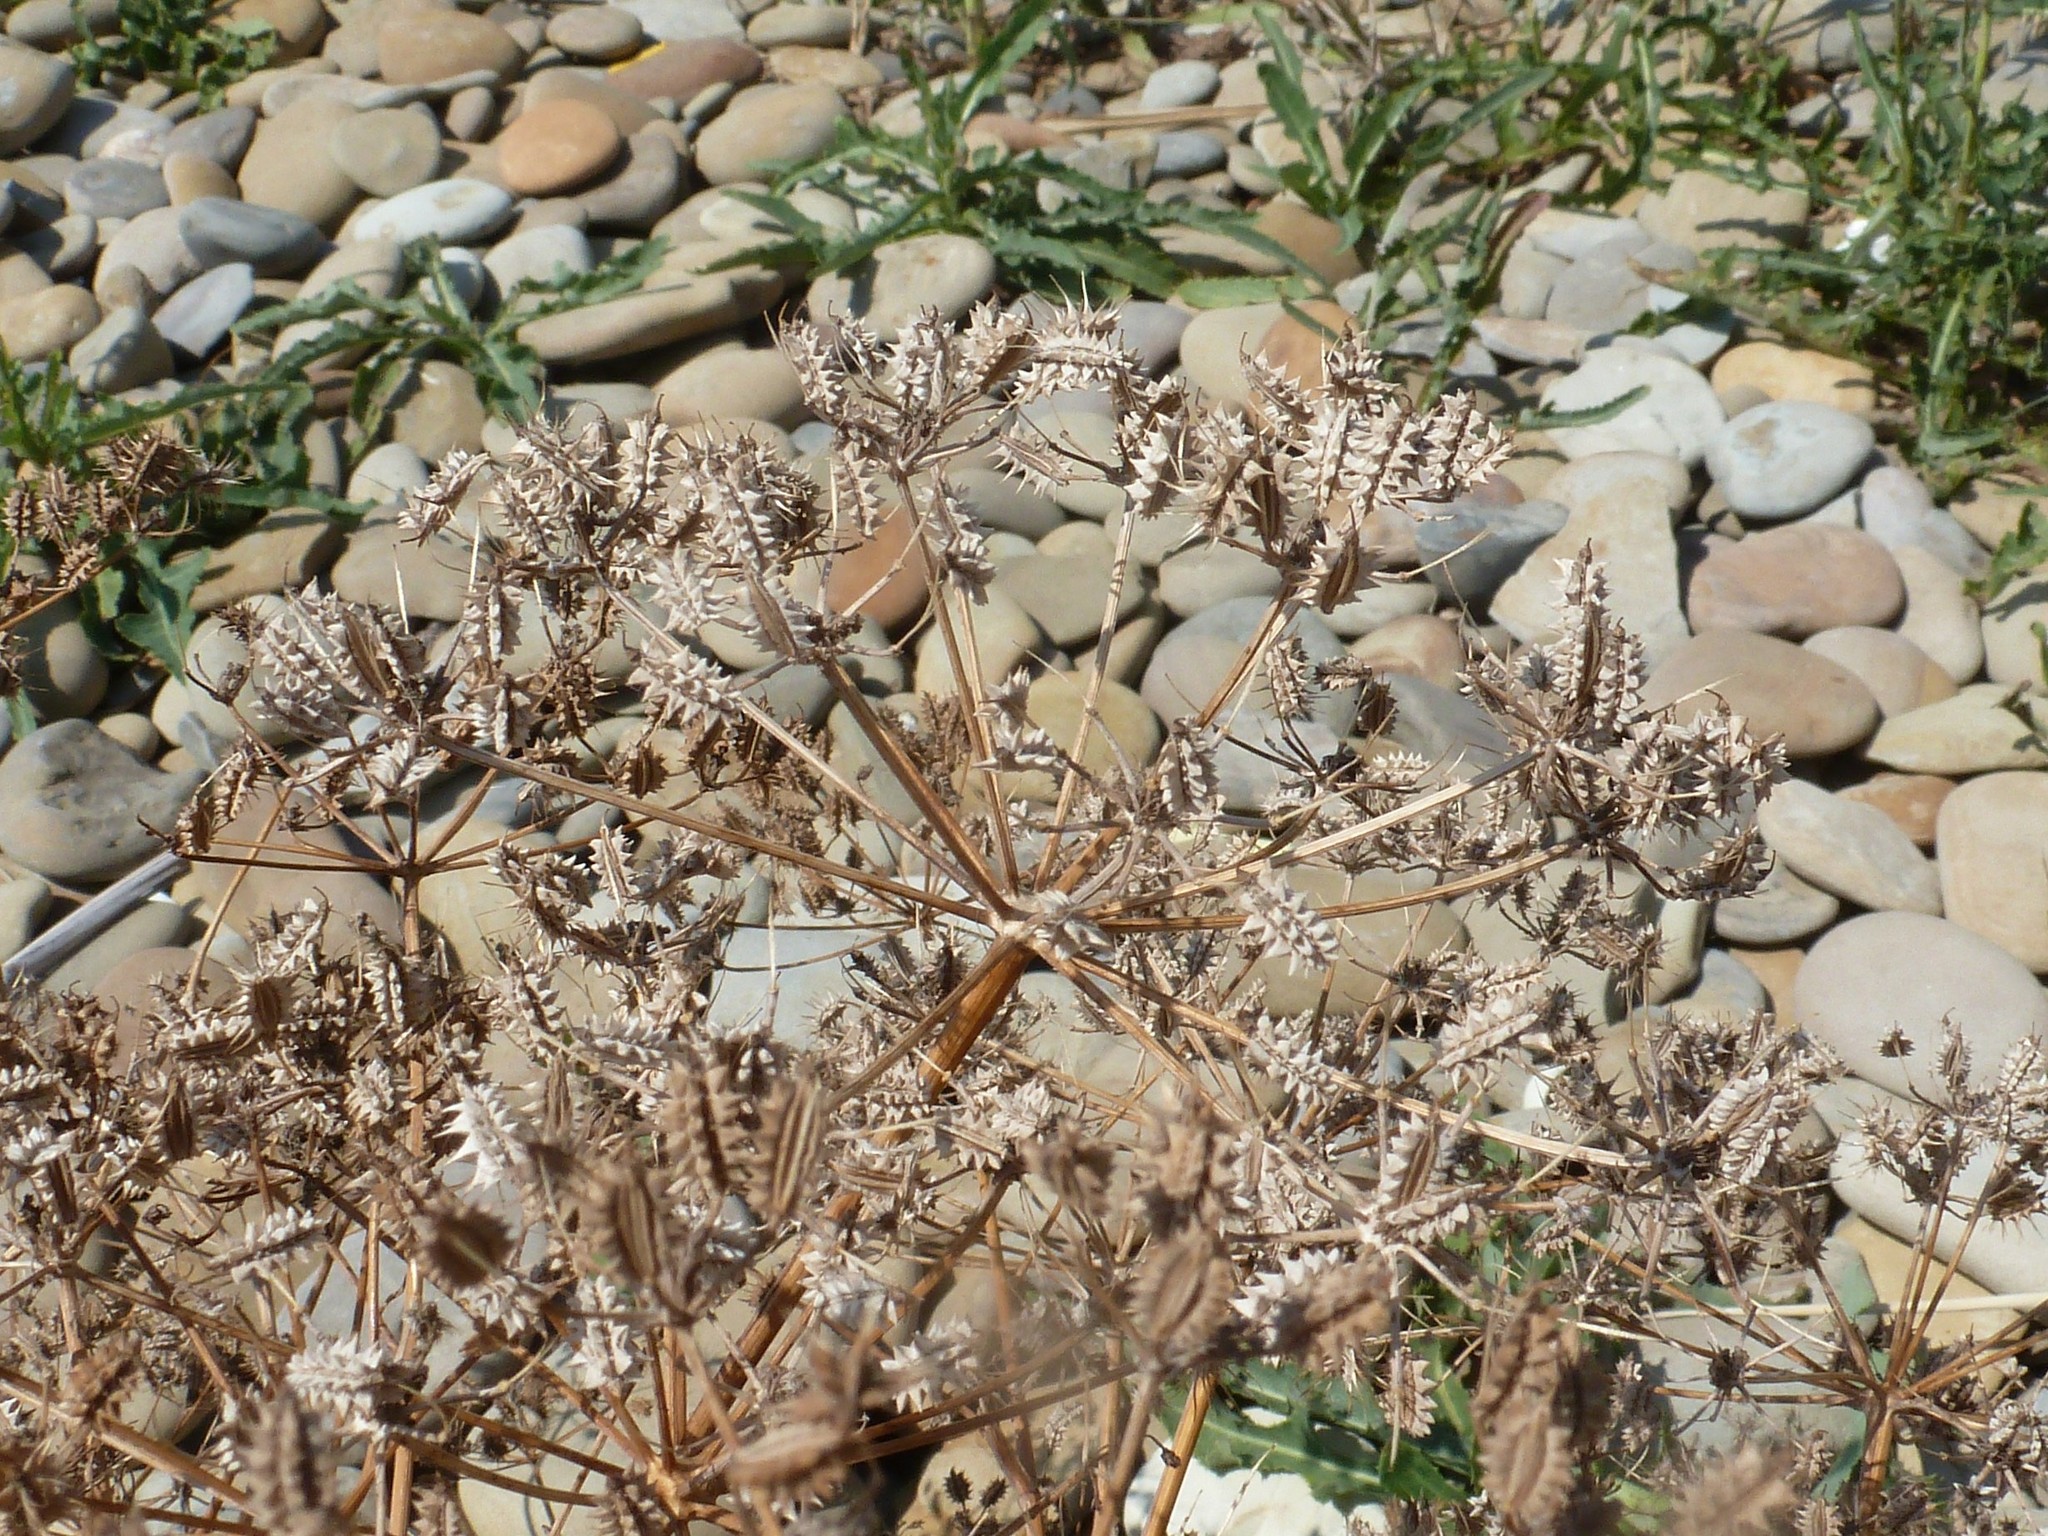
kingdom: Plantae
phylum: Tracheophyta
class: Magnoliopsida
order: Apiales
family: Apiaceae
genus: Astrodaucus
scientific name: Astrodaucus littoralis
